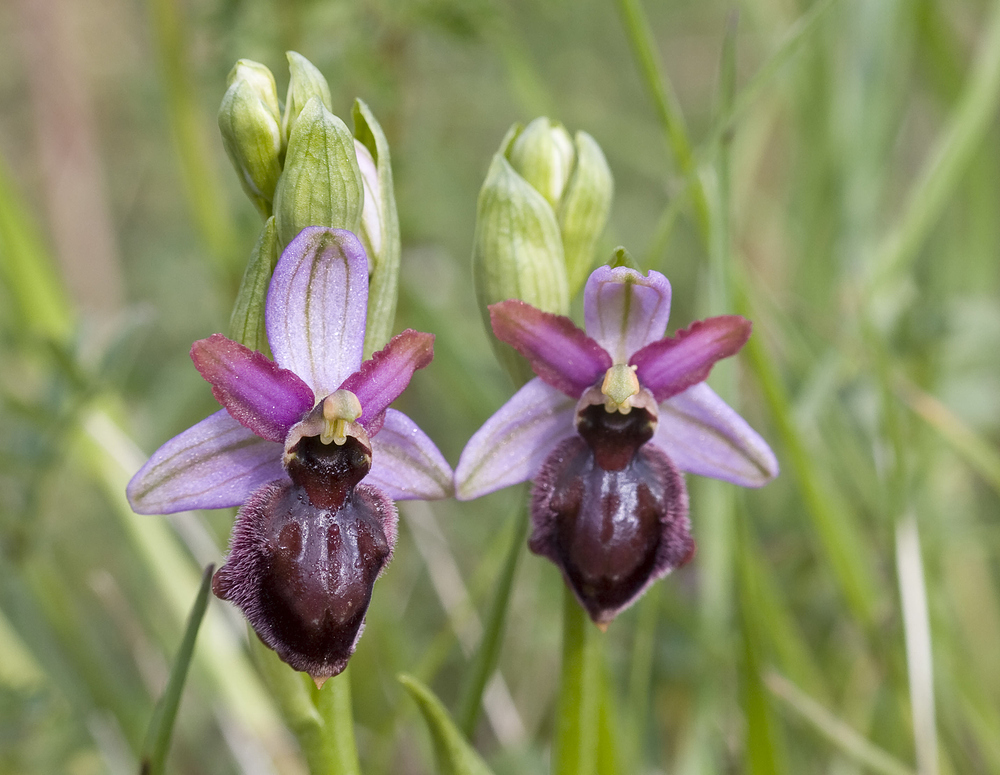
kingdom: Plantae
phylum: Tracheophyta
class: Liliopsida
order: Asparagales
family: Orchidaceae
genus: Ophrys
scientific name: Ophrys sphegodes
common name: Early spider-orchid
